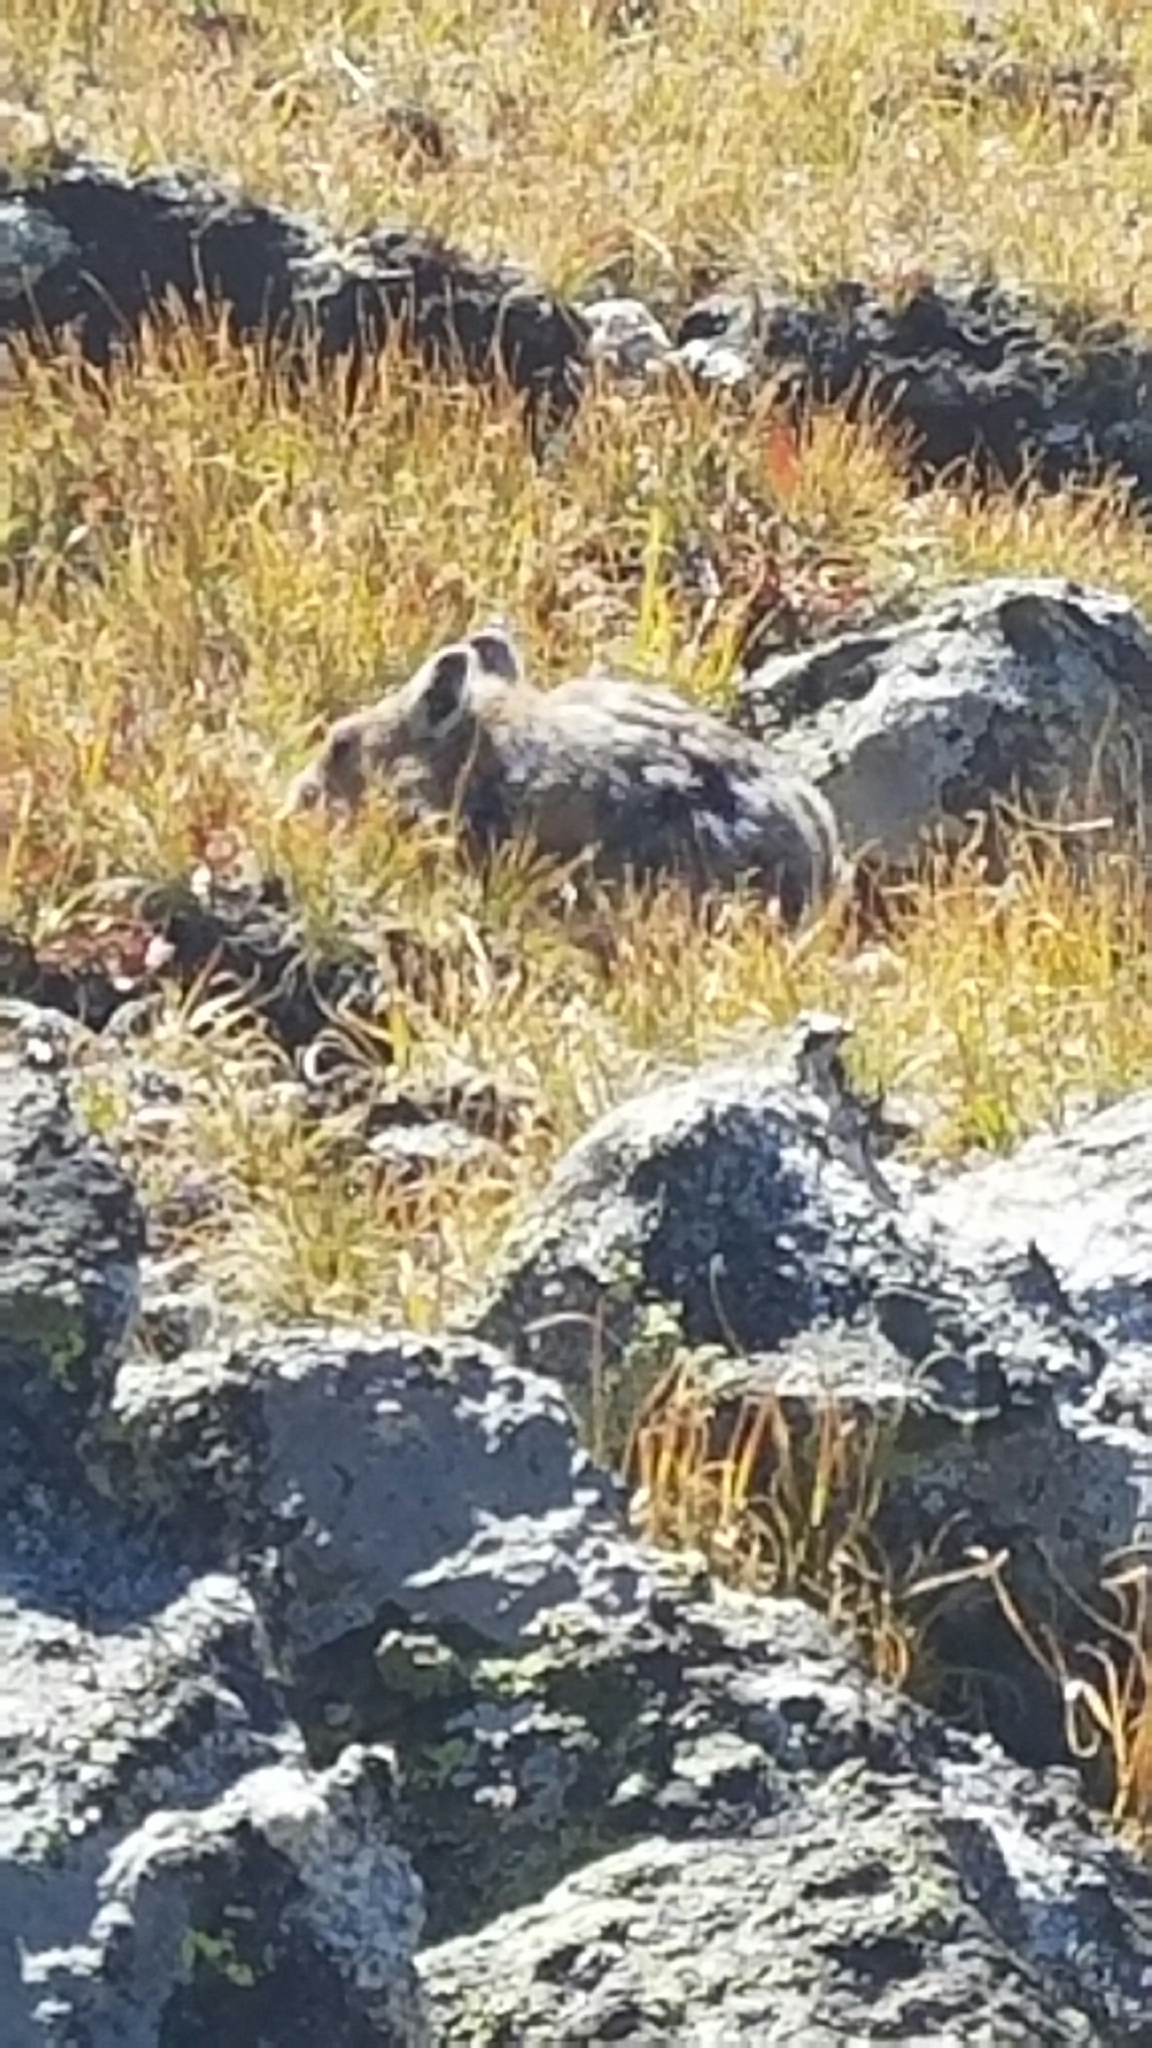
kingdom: Animalia
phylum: Chordata
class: Mammalia
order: Lagomorpha
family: Ochotonidae
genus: Ochotona
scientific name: Ochotona princeps
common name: American pika
